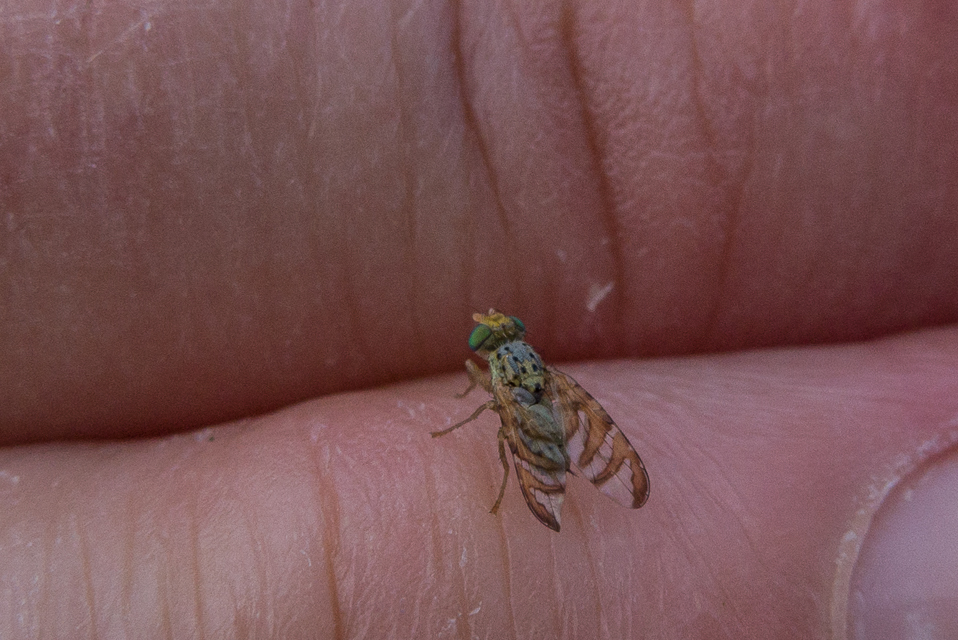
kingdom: Animalia
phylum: Arthropoda
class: Insecta
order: Diptera
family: Tephritidae
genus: Chaetorellia
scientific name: Chaetorellia succinea
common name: False peacock fly
